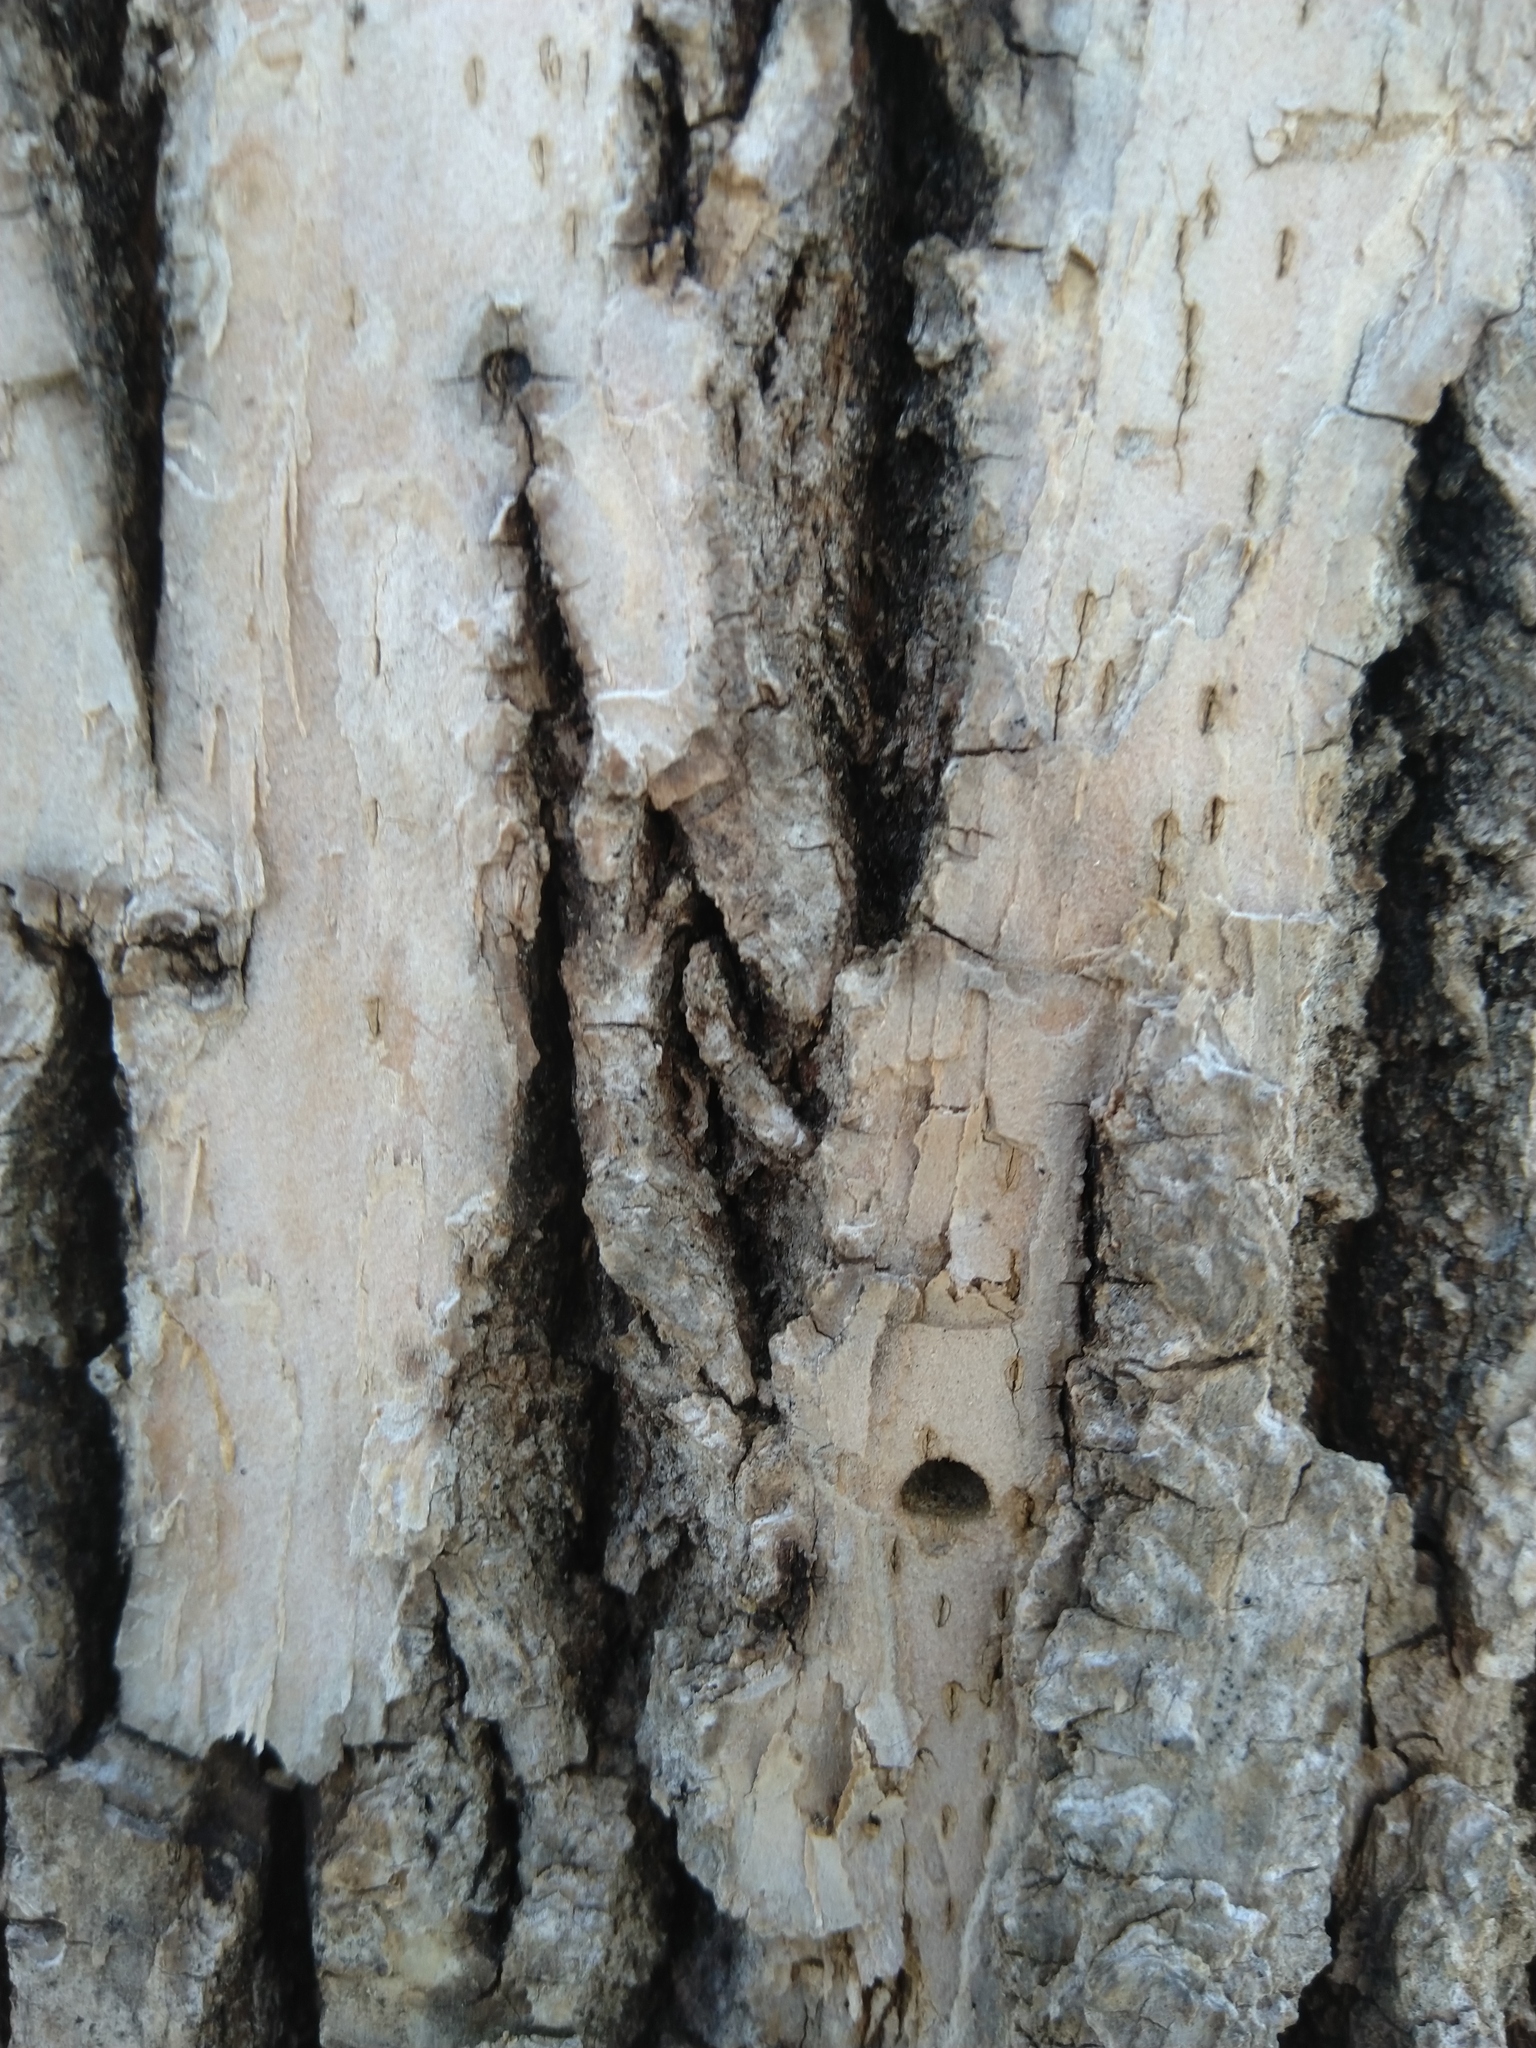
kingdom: Animalia
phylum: Arthropoda
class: Insecta
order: Coleoptera
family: Buprestidae
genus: Agrilus
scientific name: Agrilus planipennis
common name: Emerald ash borer
